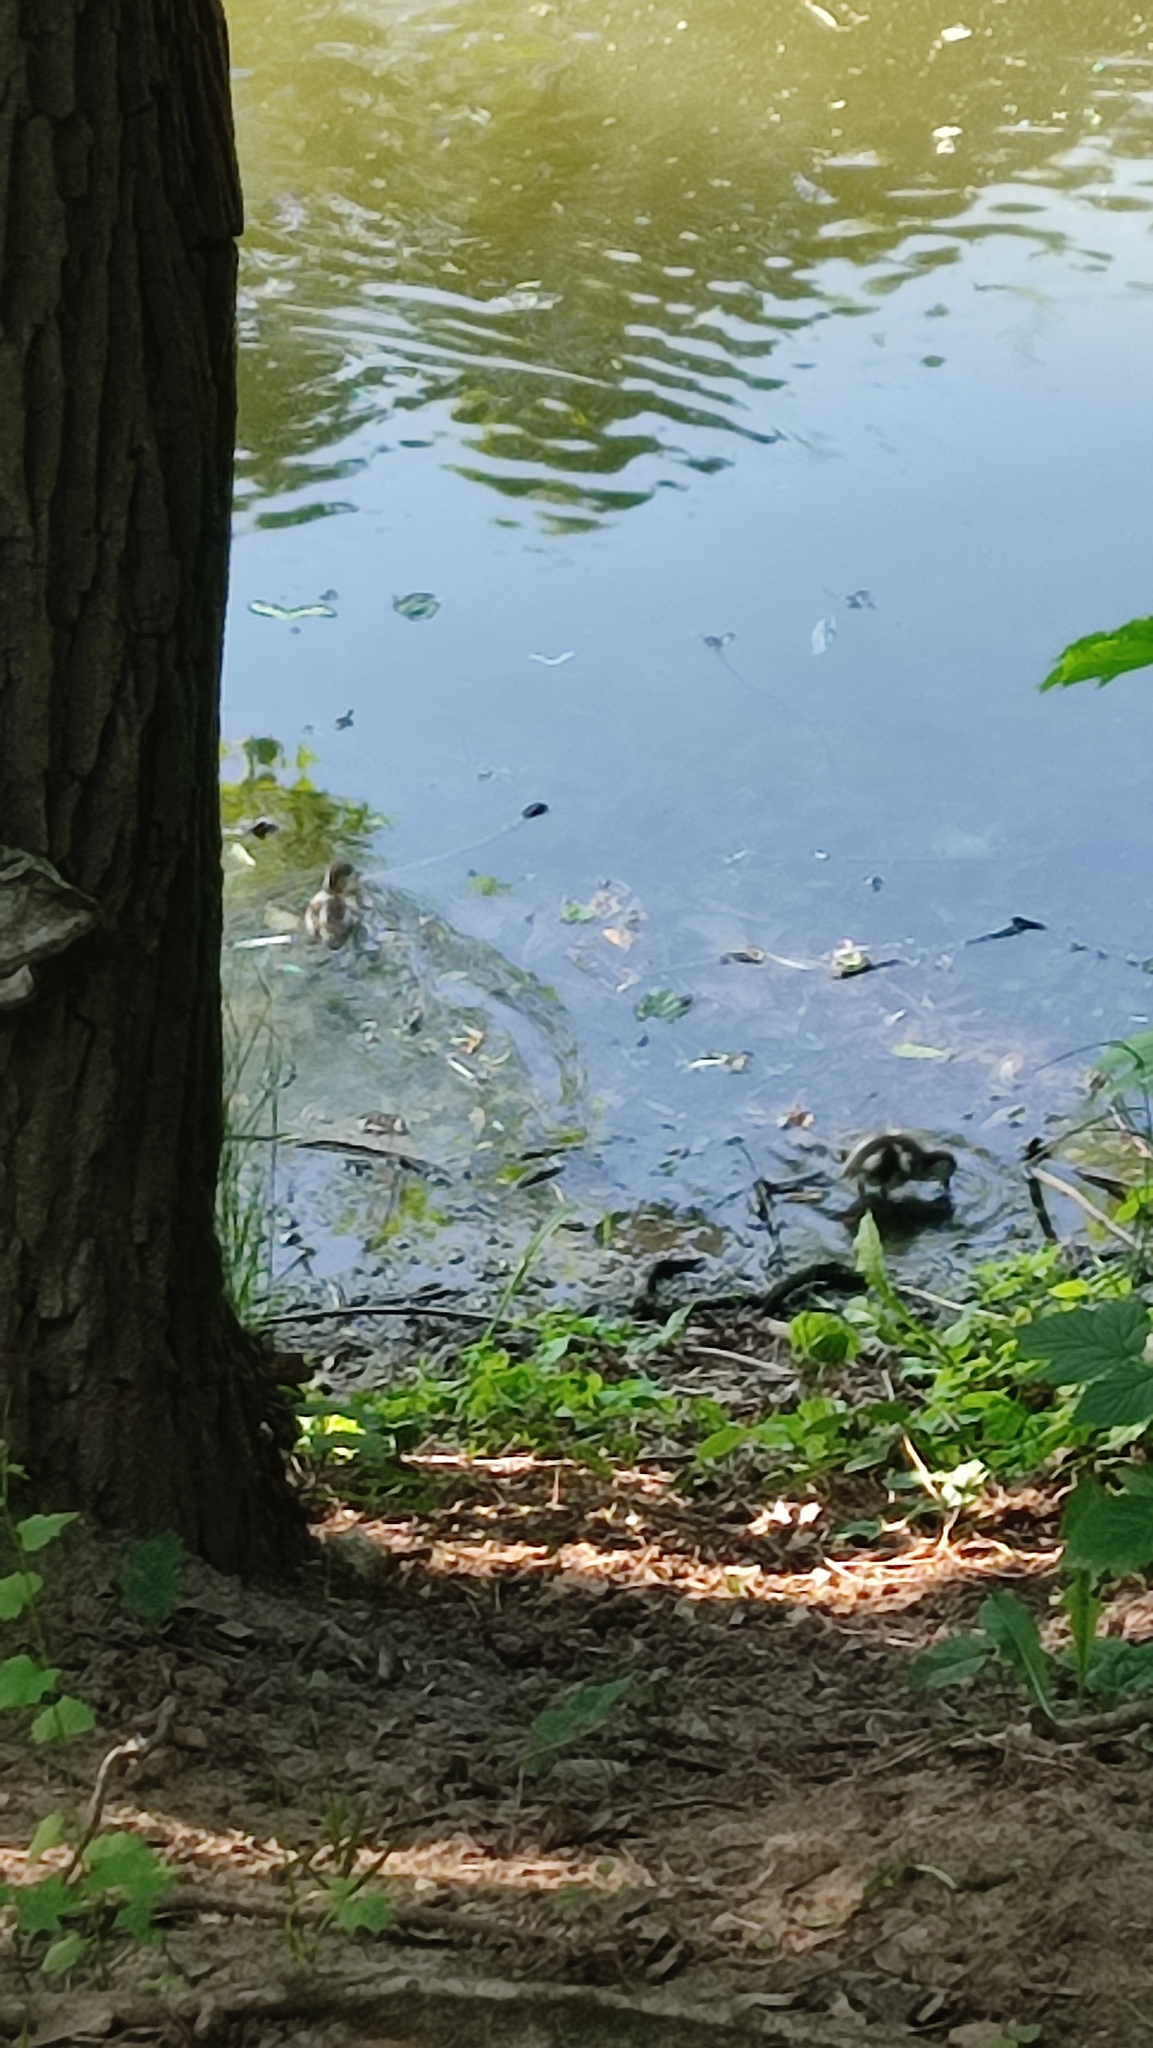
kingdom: Animalia
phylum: Chordata
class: Aves
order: Anseriformes
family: Anatidae
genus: Tadorna
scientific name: Tadorna ferruginea
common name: Ruddy shelduck
